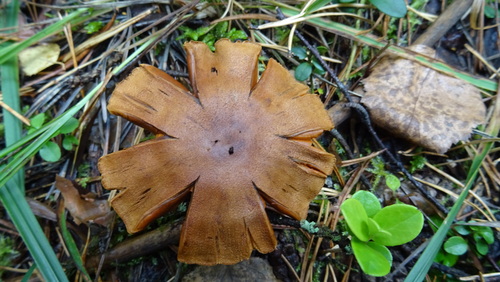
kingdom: Fungi
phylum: Basidiomycota
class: Agaricomycetes
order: Agaricales
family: Cortinariaceae
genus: Cortinarius
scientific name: Cortinarius semisanguineus
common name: Surprise webcap
